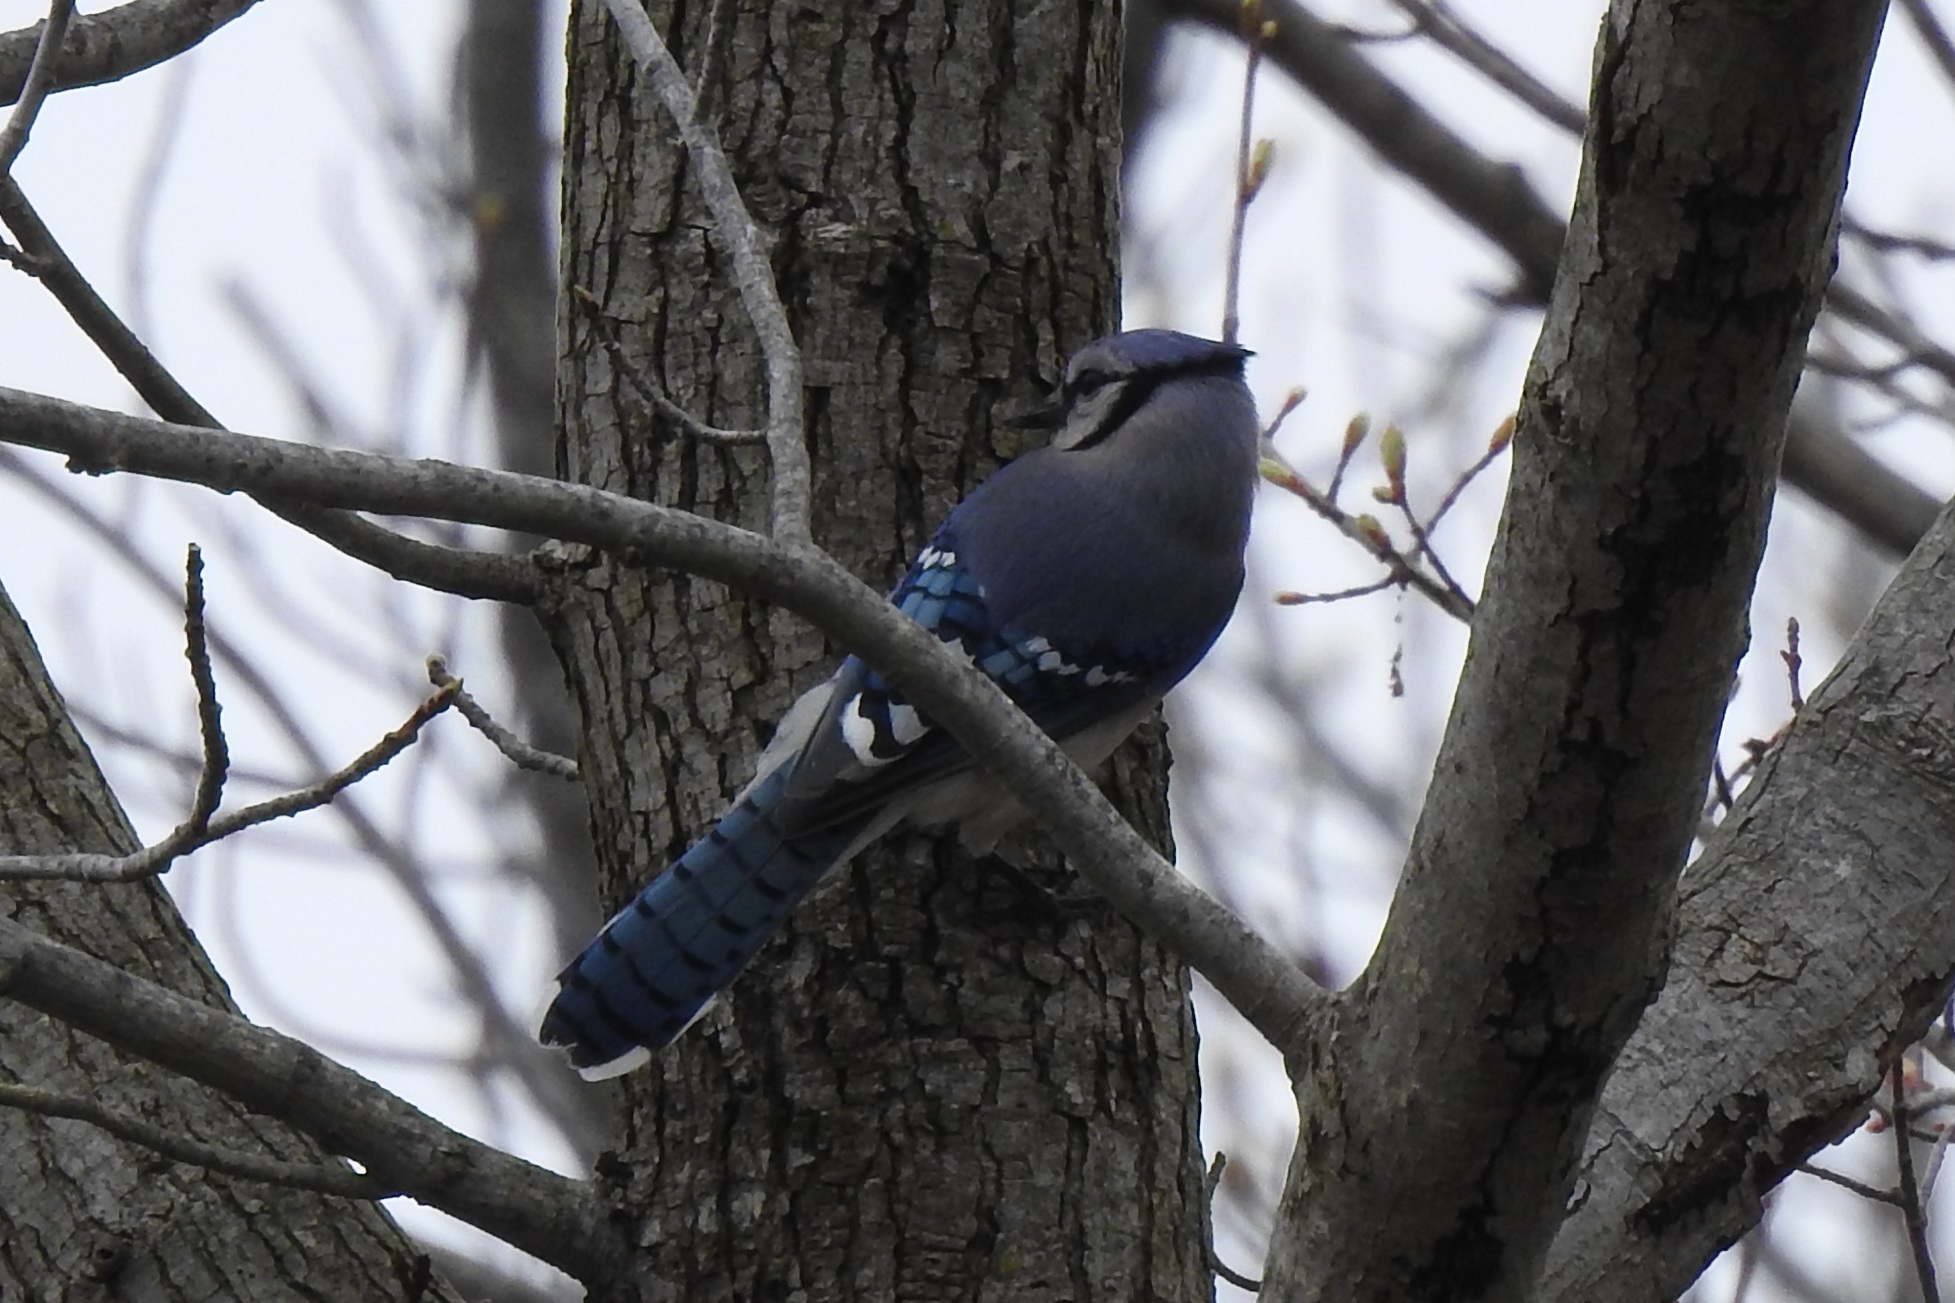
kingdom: Animalia
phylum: Chordata
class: Aves
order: Passeriformes
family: Corvidae
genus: Cyanocitta
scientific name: Cyanocitta cristata
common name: Blue jay
